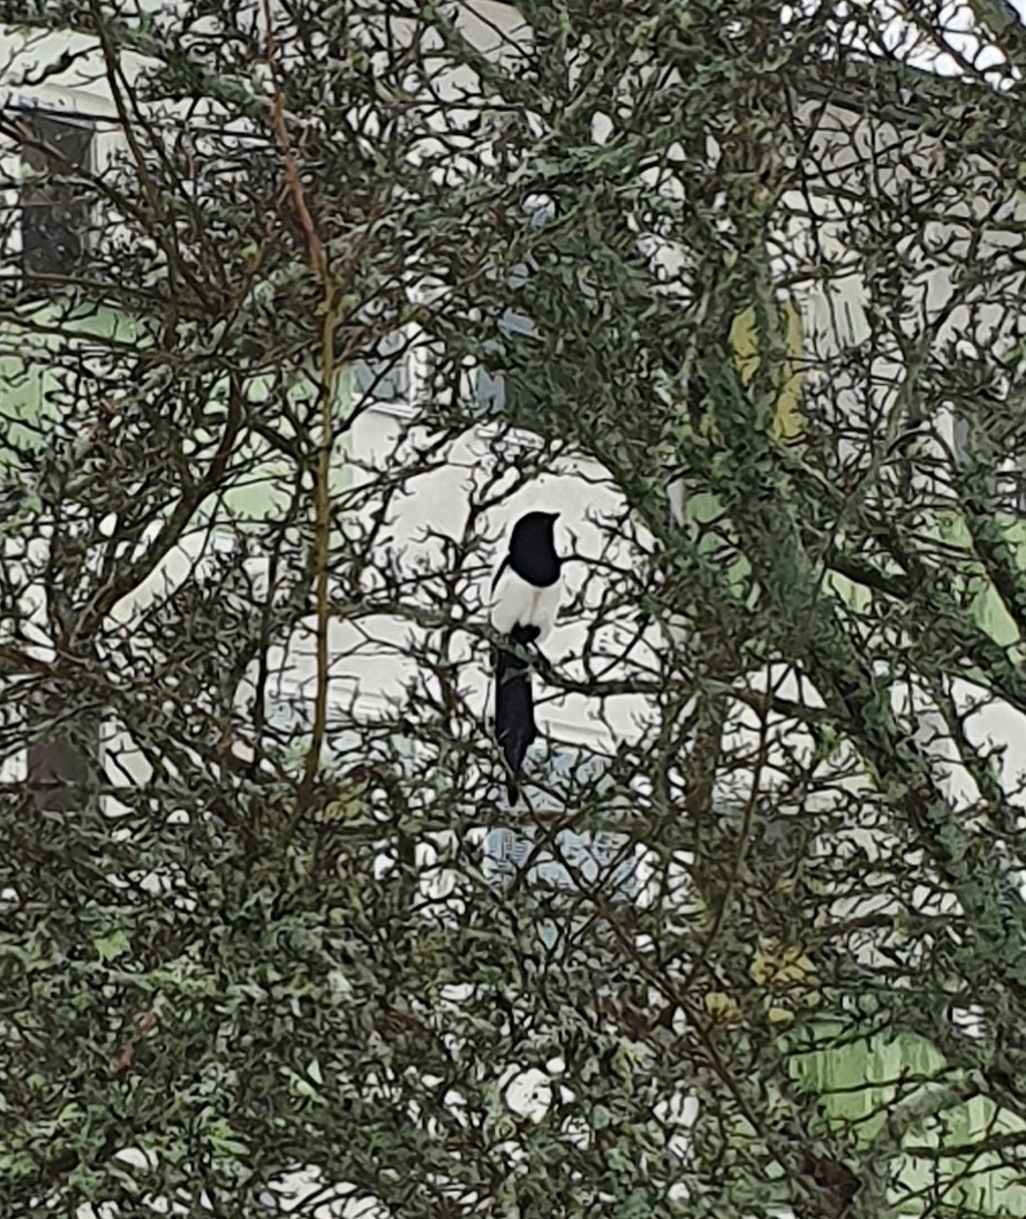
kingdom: Animalia
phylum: Chordata
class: Aves
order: Passeriformes
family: Corvidae
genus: Pica
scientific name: Pica pica
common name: Eurasian magpie
